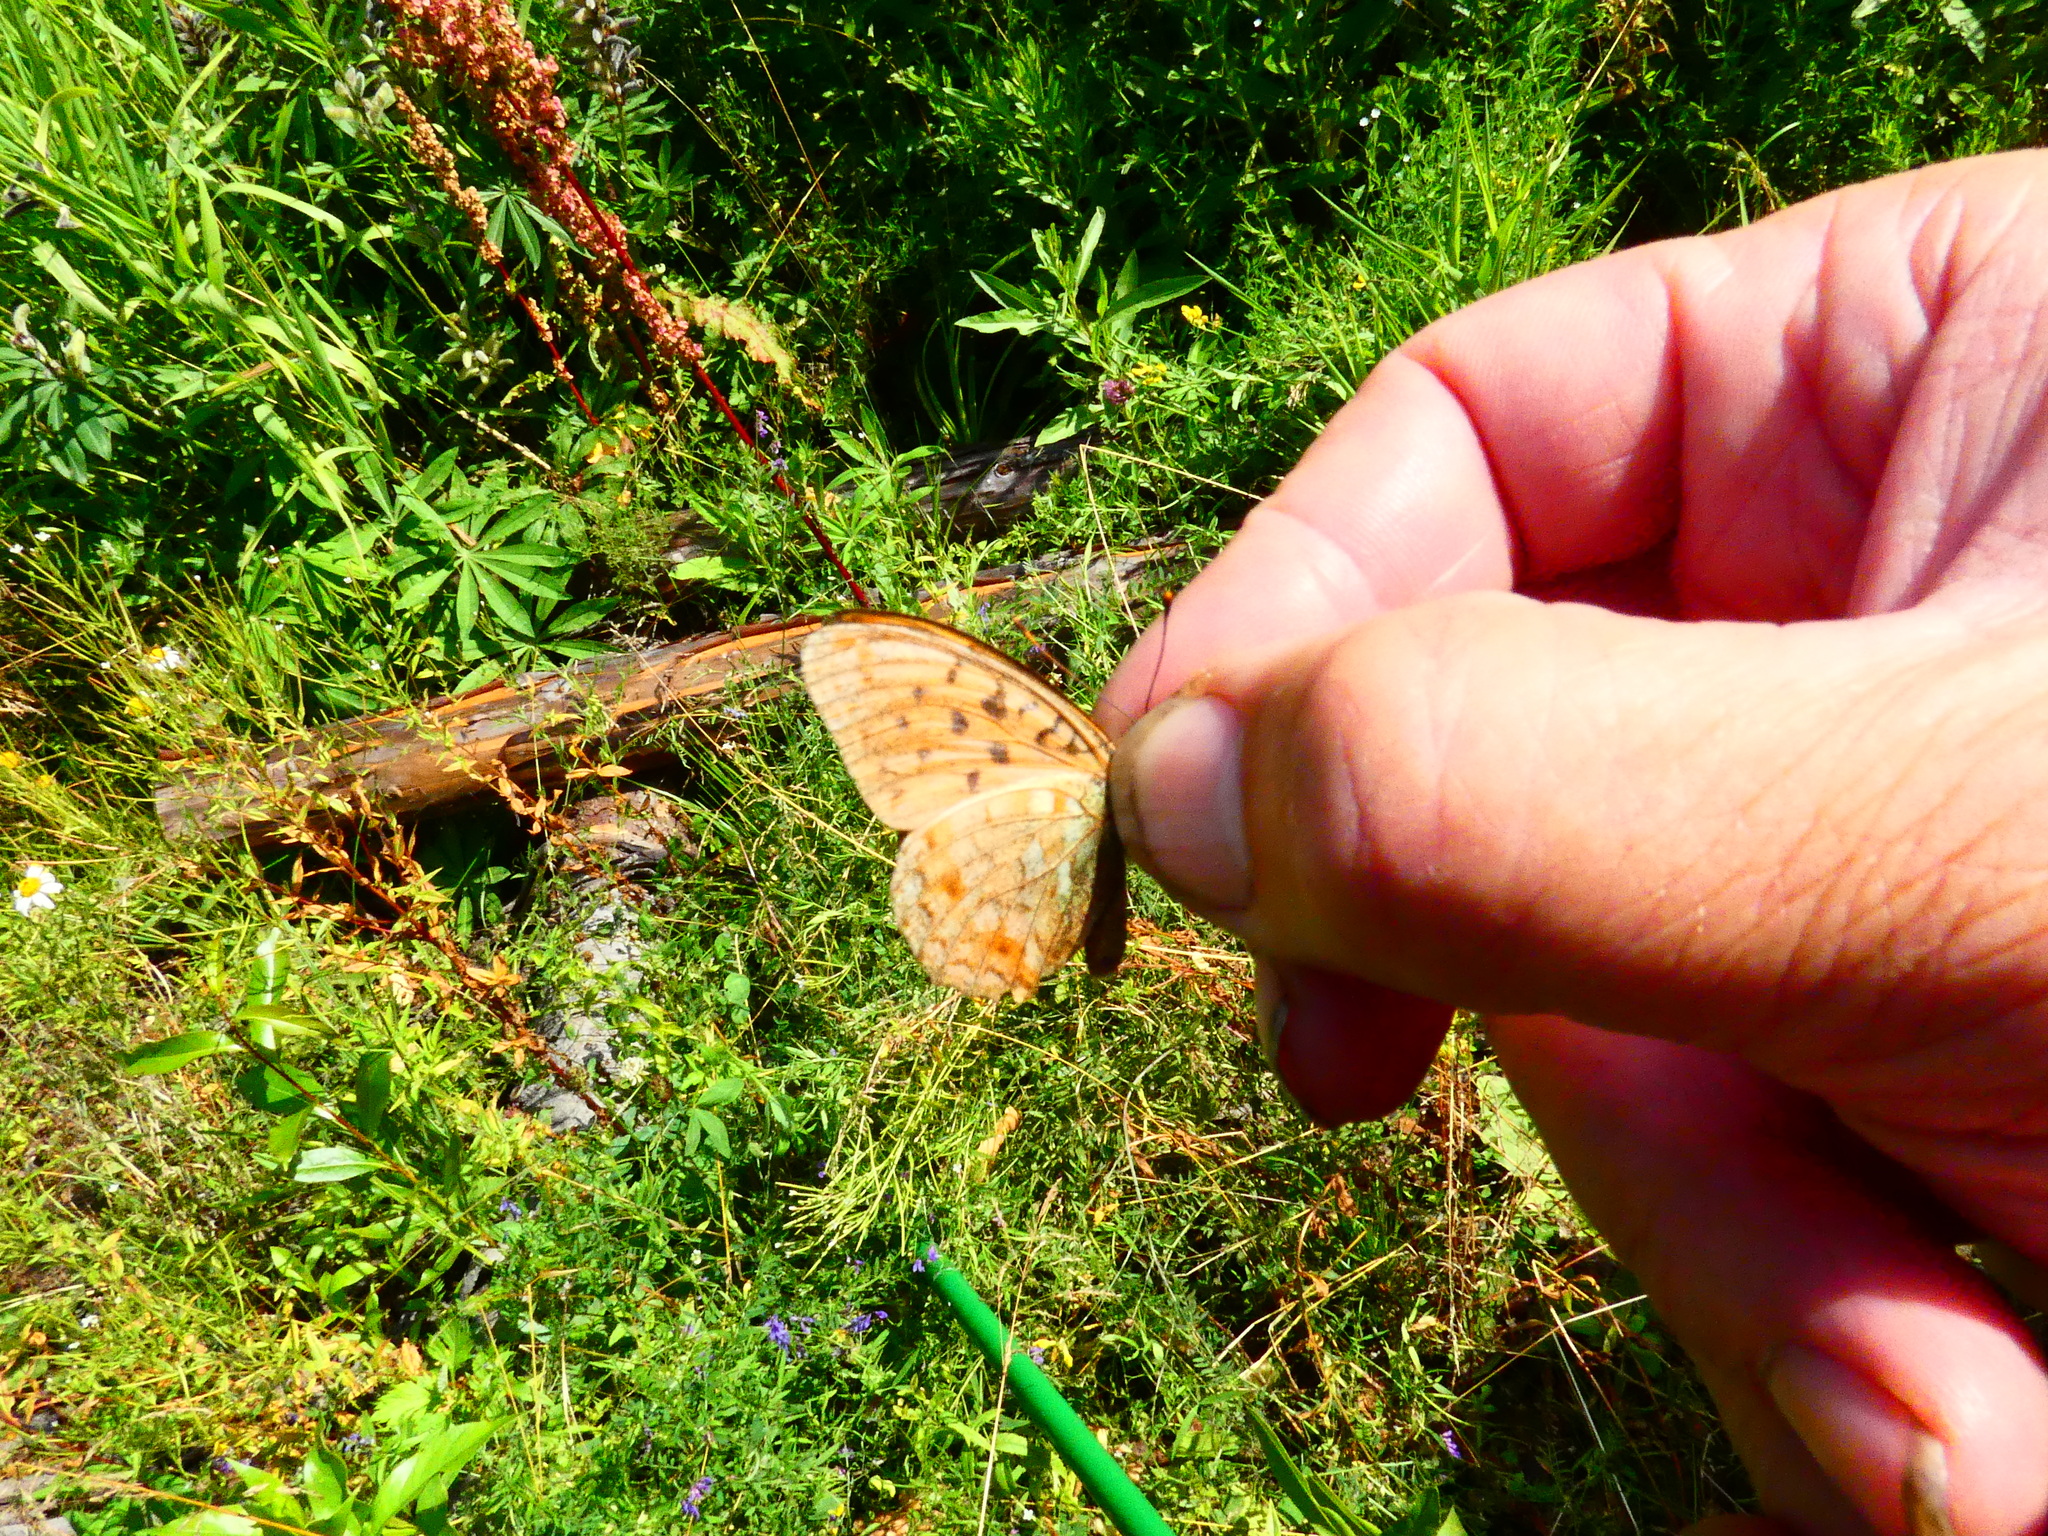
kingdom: Animalia
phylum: Arthropoda
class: Insecta
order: Lepidoptera
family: Nymphalidae
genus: Fabriciana
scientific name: Fabriciana adippe
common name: High brown fritillary
